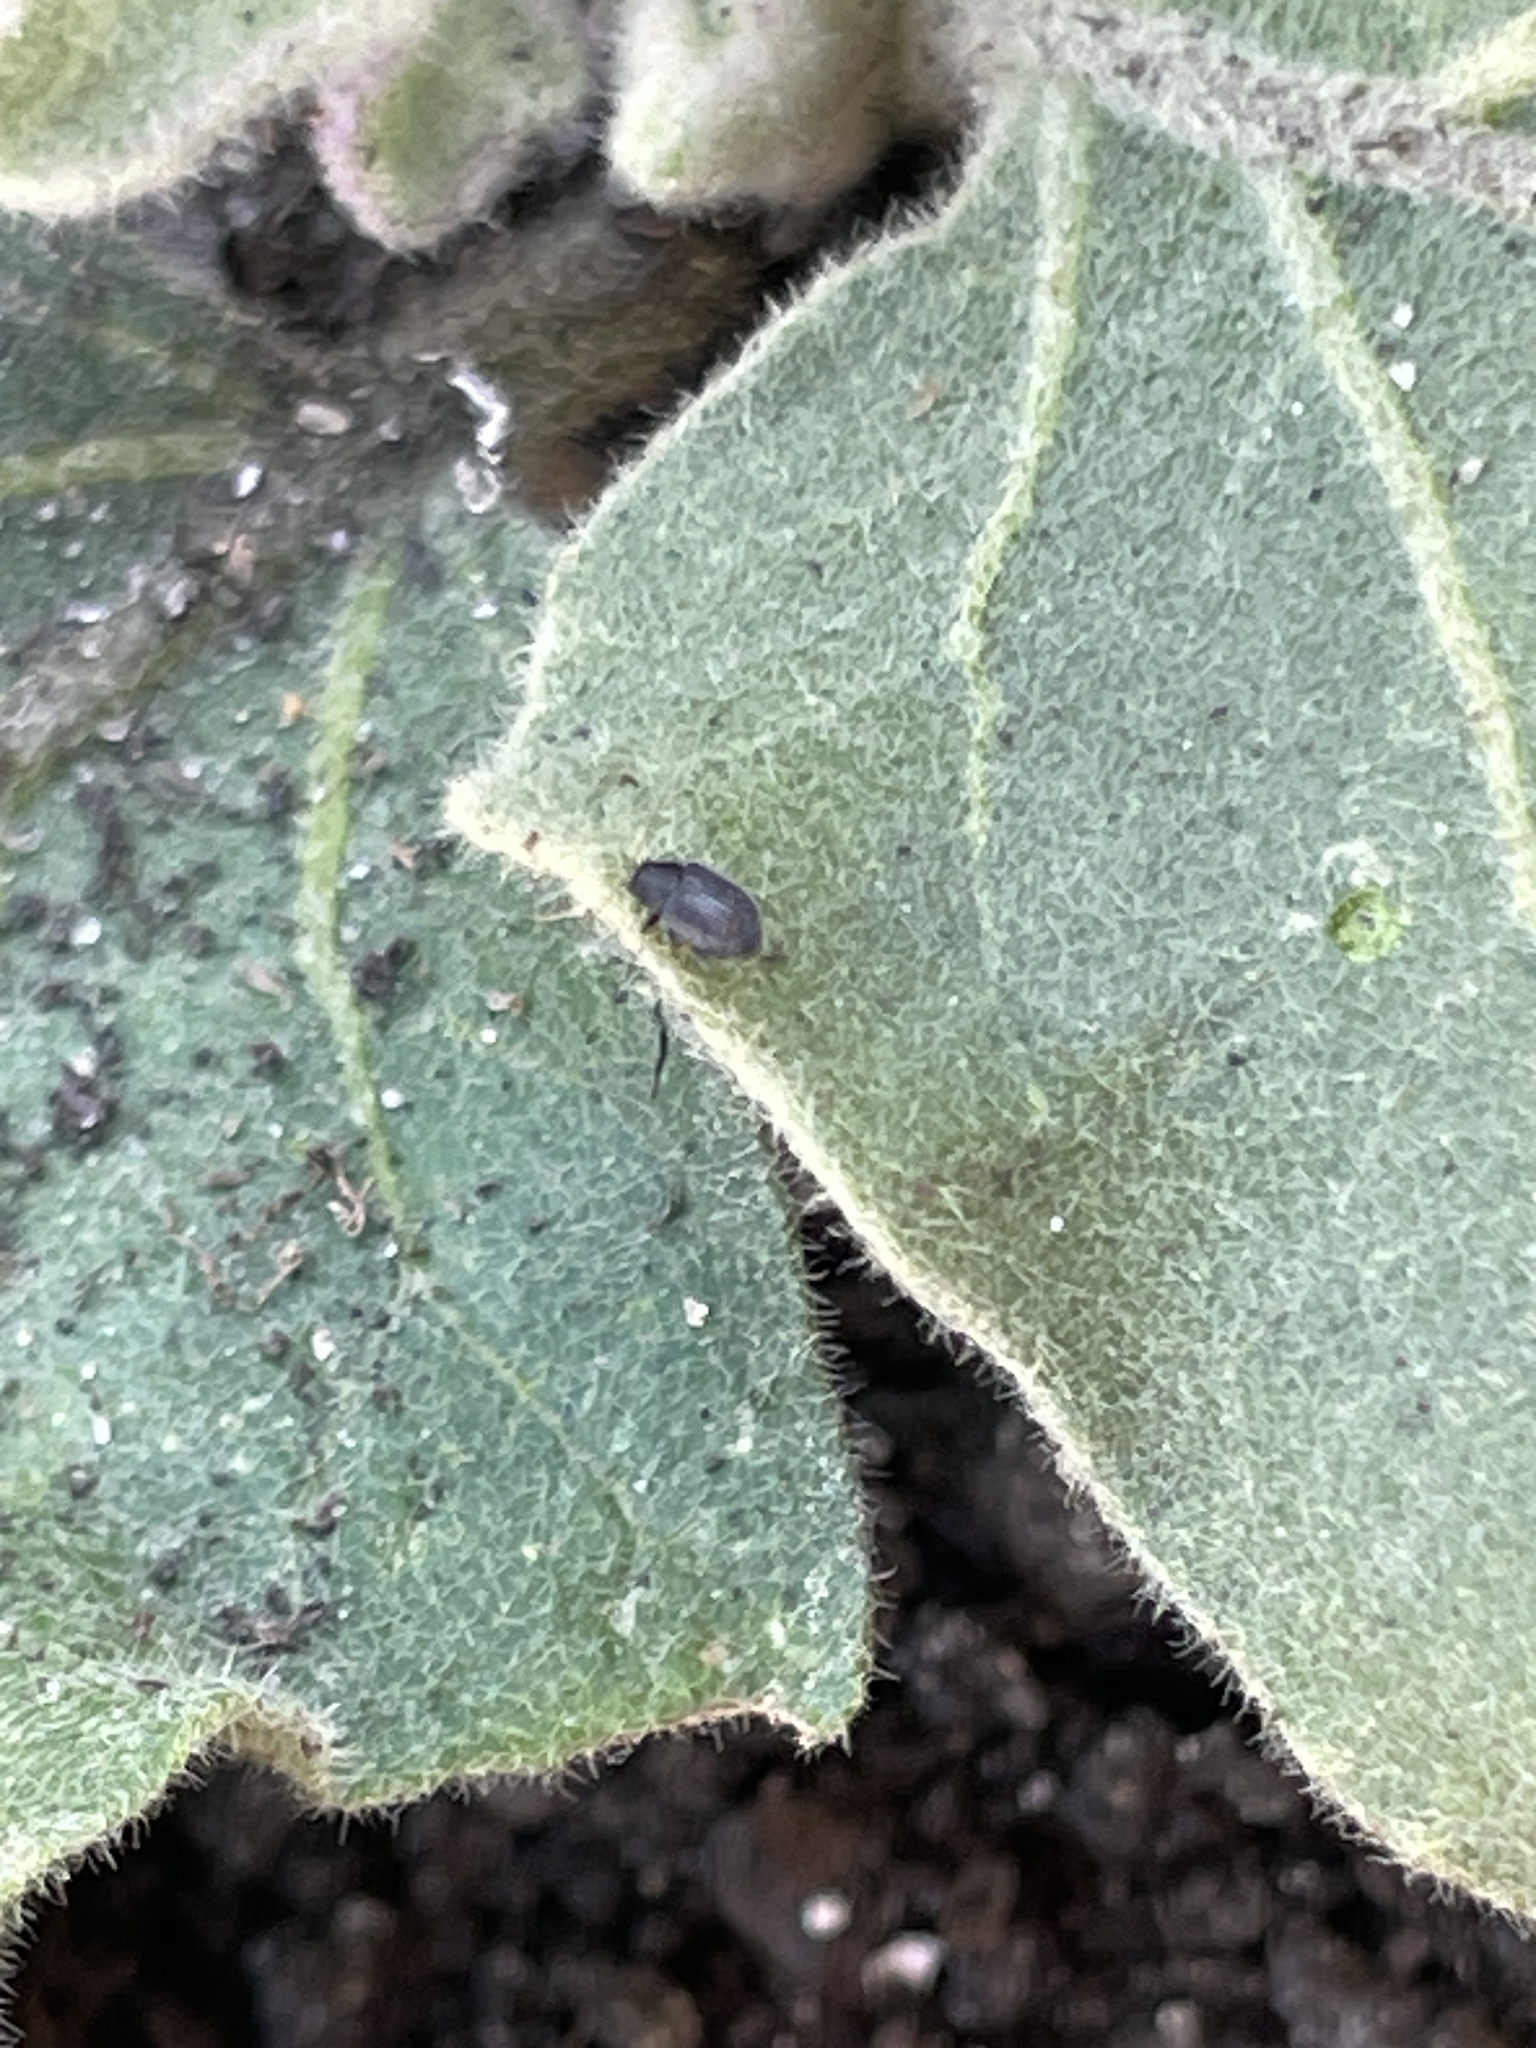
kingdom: Animalia
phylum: Arthropoda
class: Insecta
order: Coleoptera
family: Chrysomelidae
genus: Epitrix
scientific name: Epitrix fuscula
